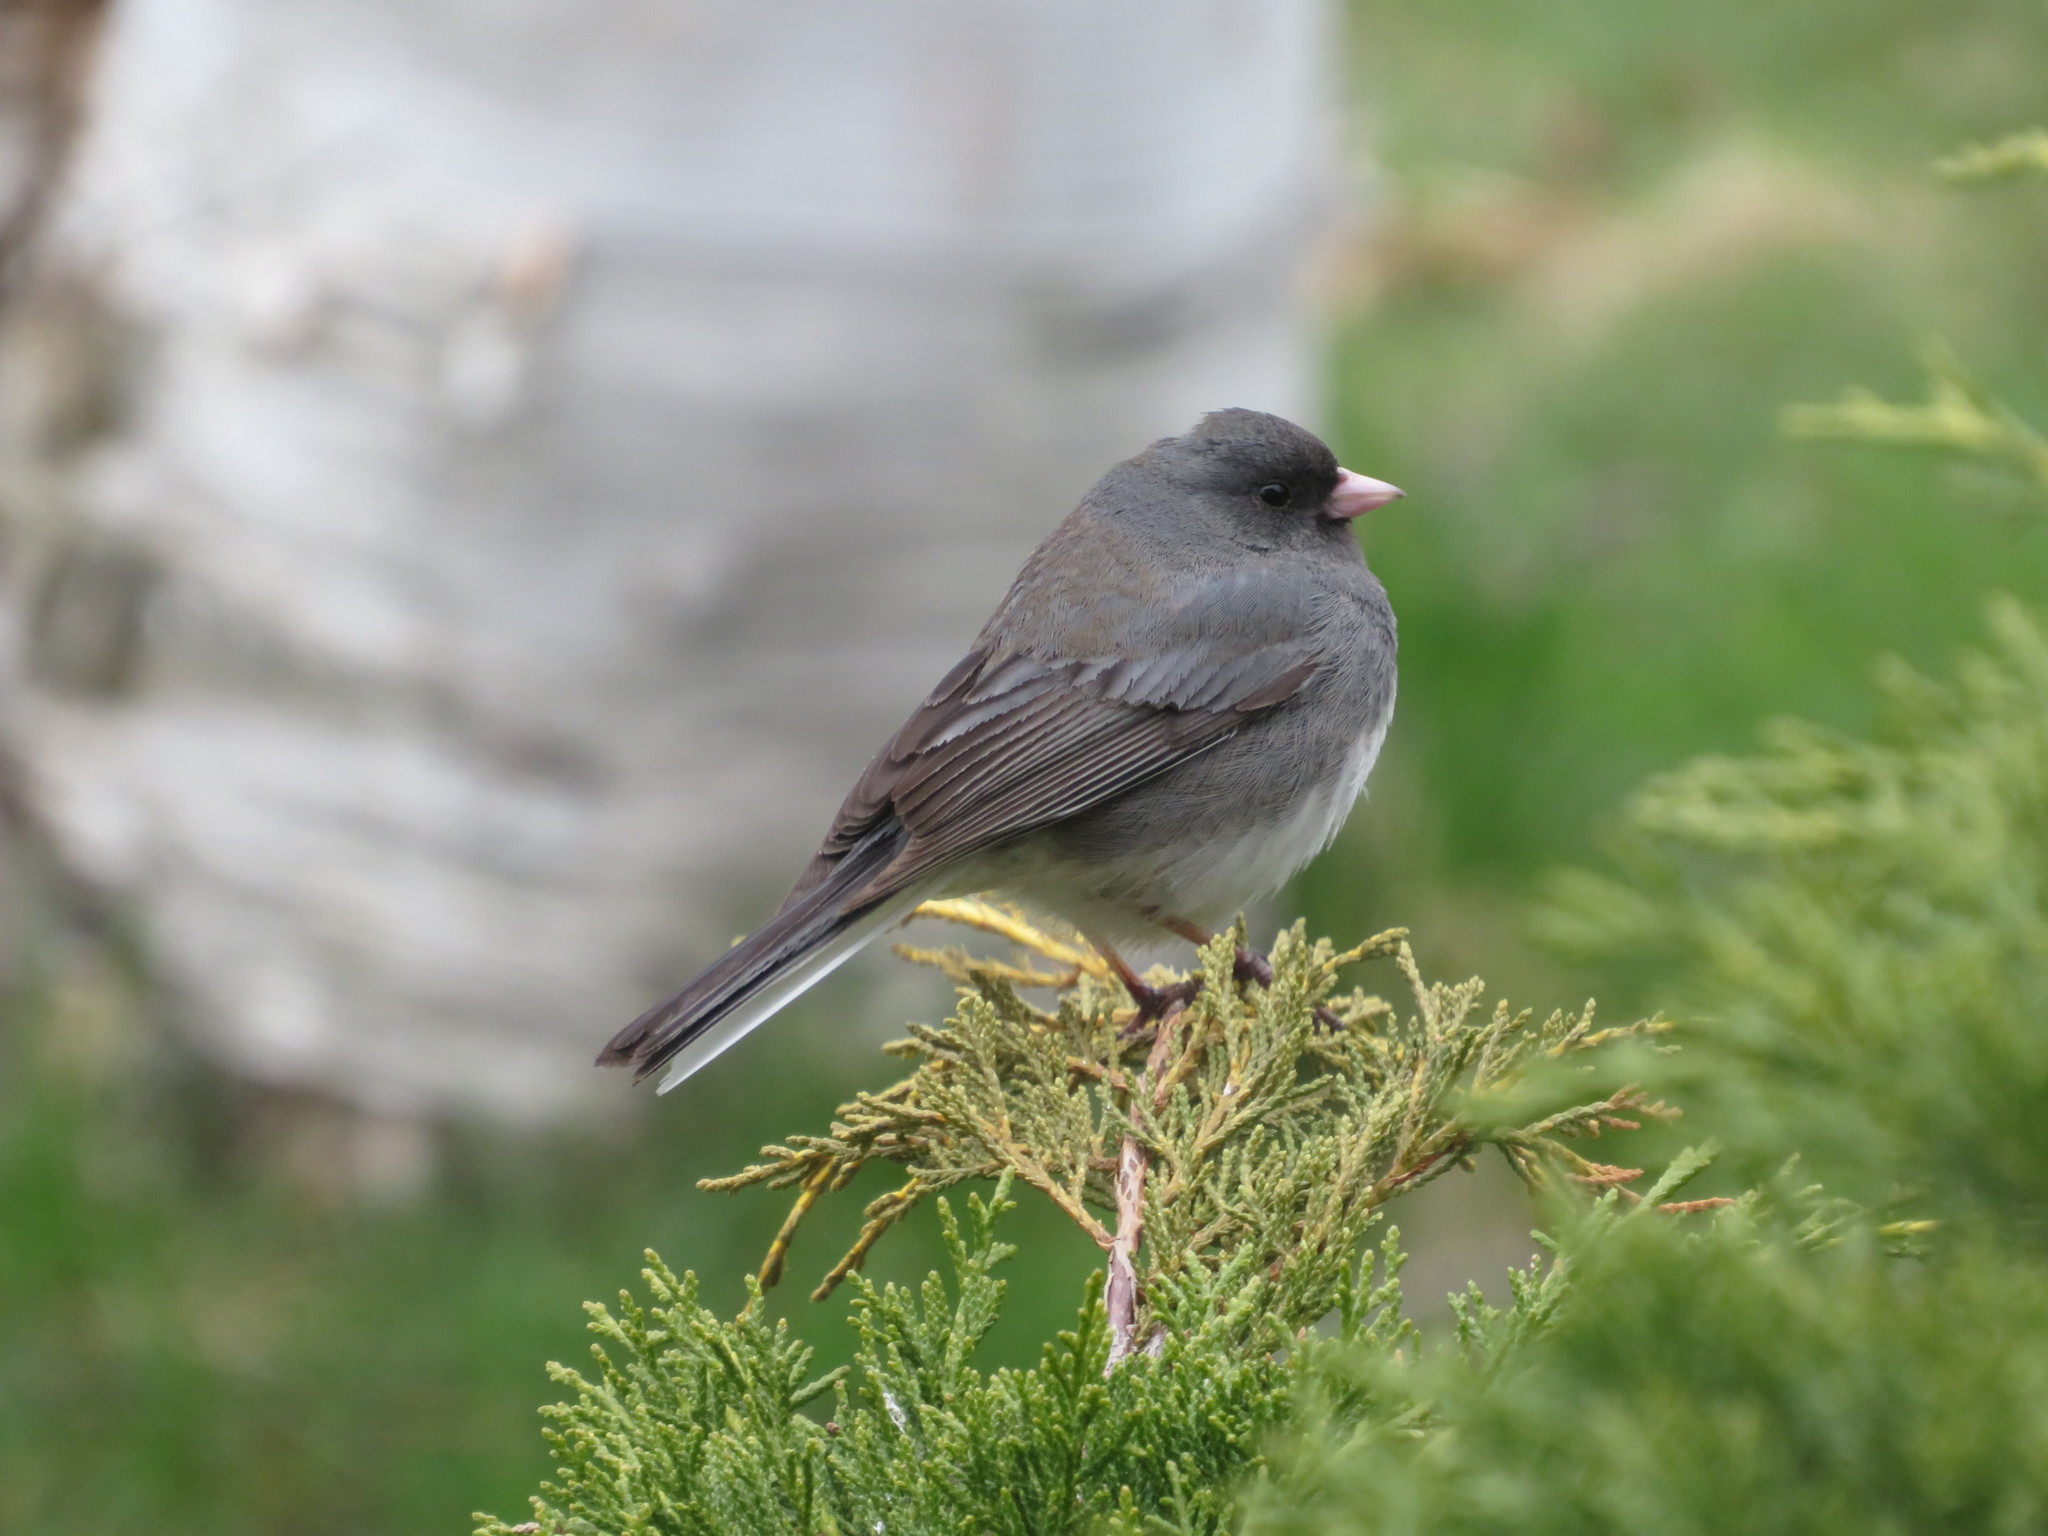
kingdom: Animalia
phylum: Chordata
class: Aves
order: Passeriformes
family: Passerellidae
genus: Junco
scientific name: Junco hyemalis
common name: Dark-eyed junco
